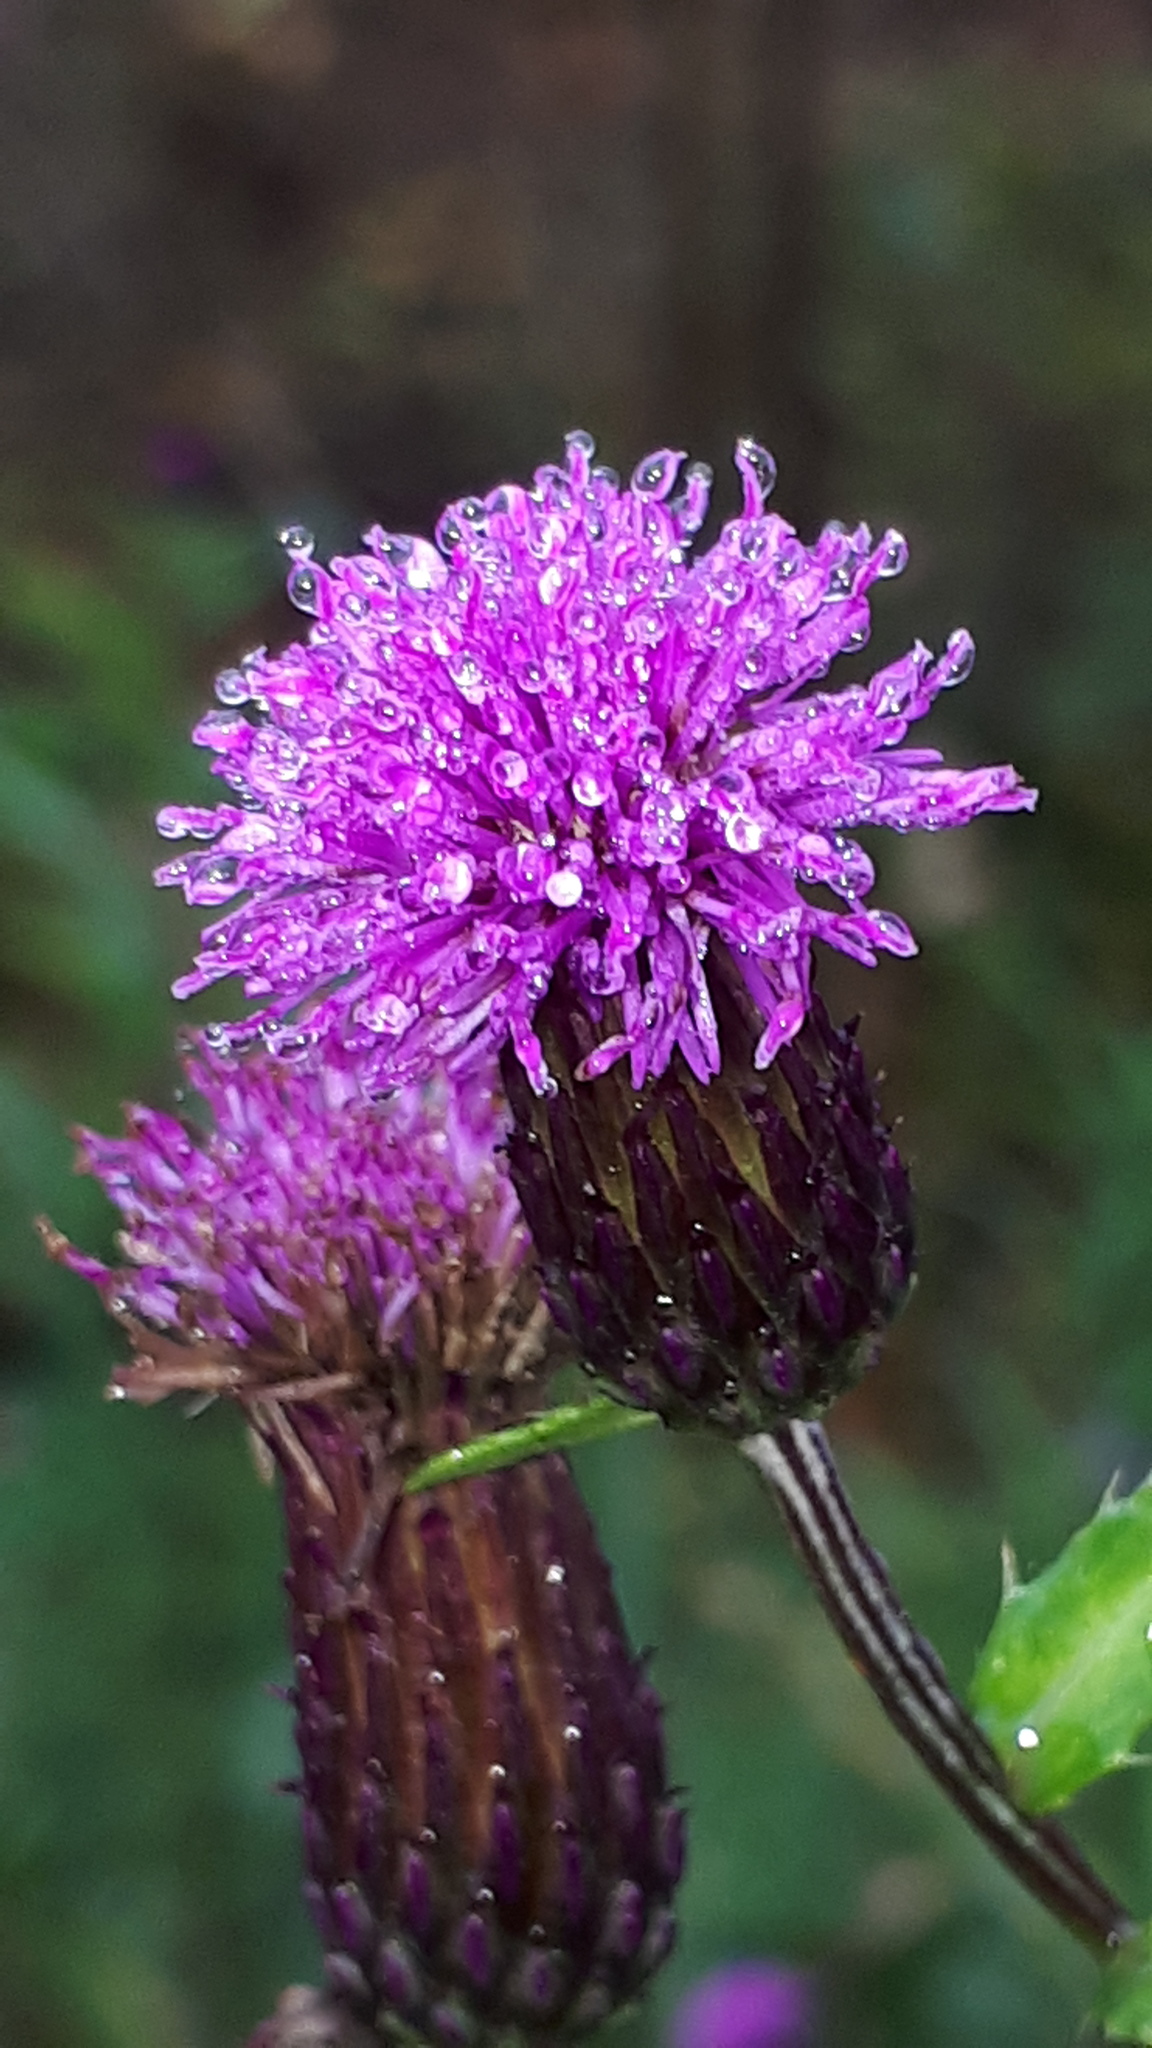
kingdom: Plantae
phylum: Tracheophyta
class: Magnoliopsida
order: Asterales
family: Asteraceae
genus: Cirsium
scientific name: Cirsium arvense
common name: Creeping thistle
